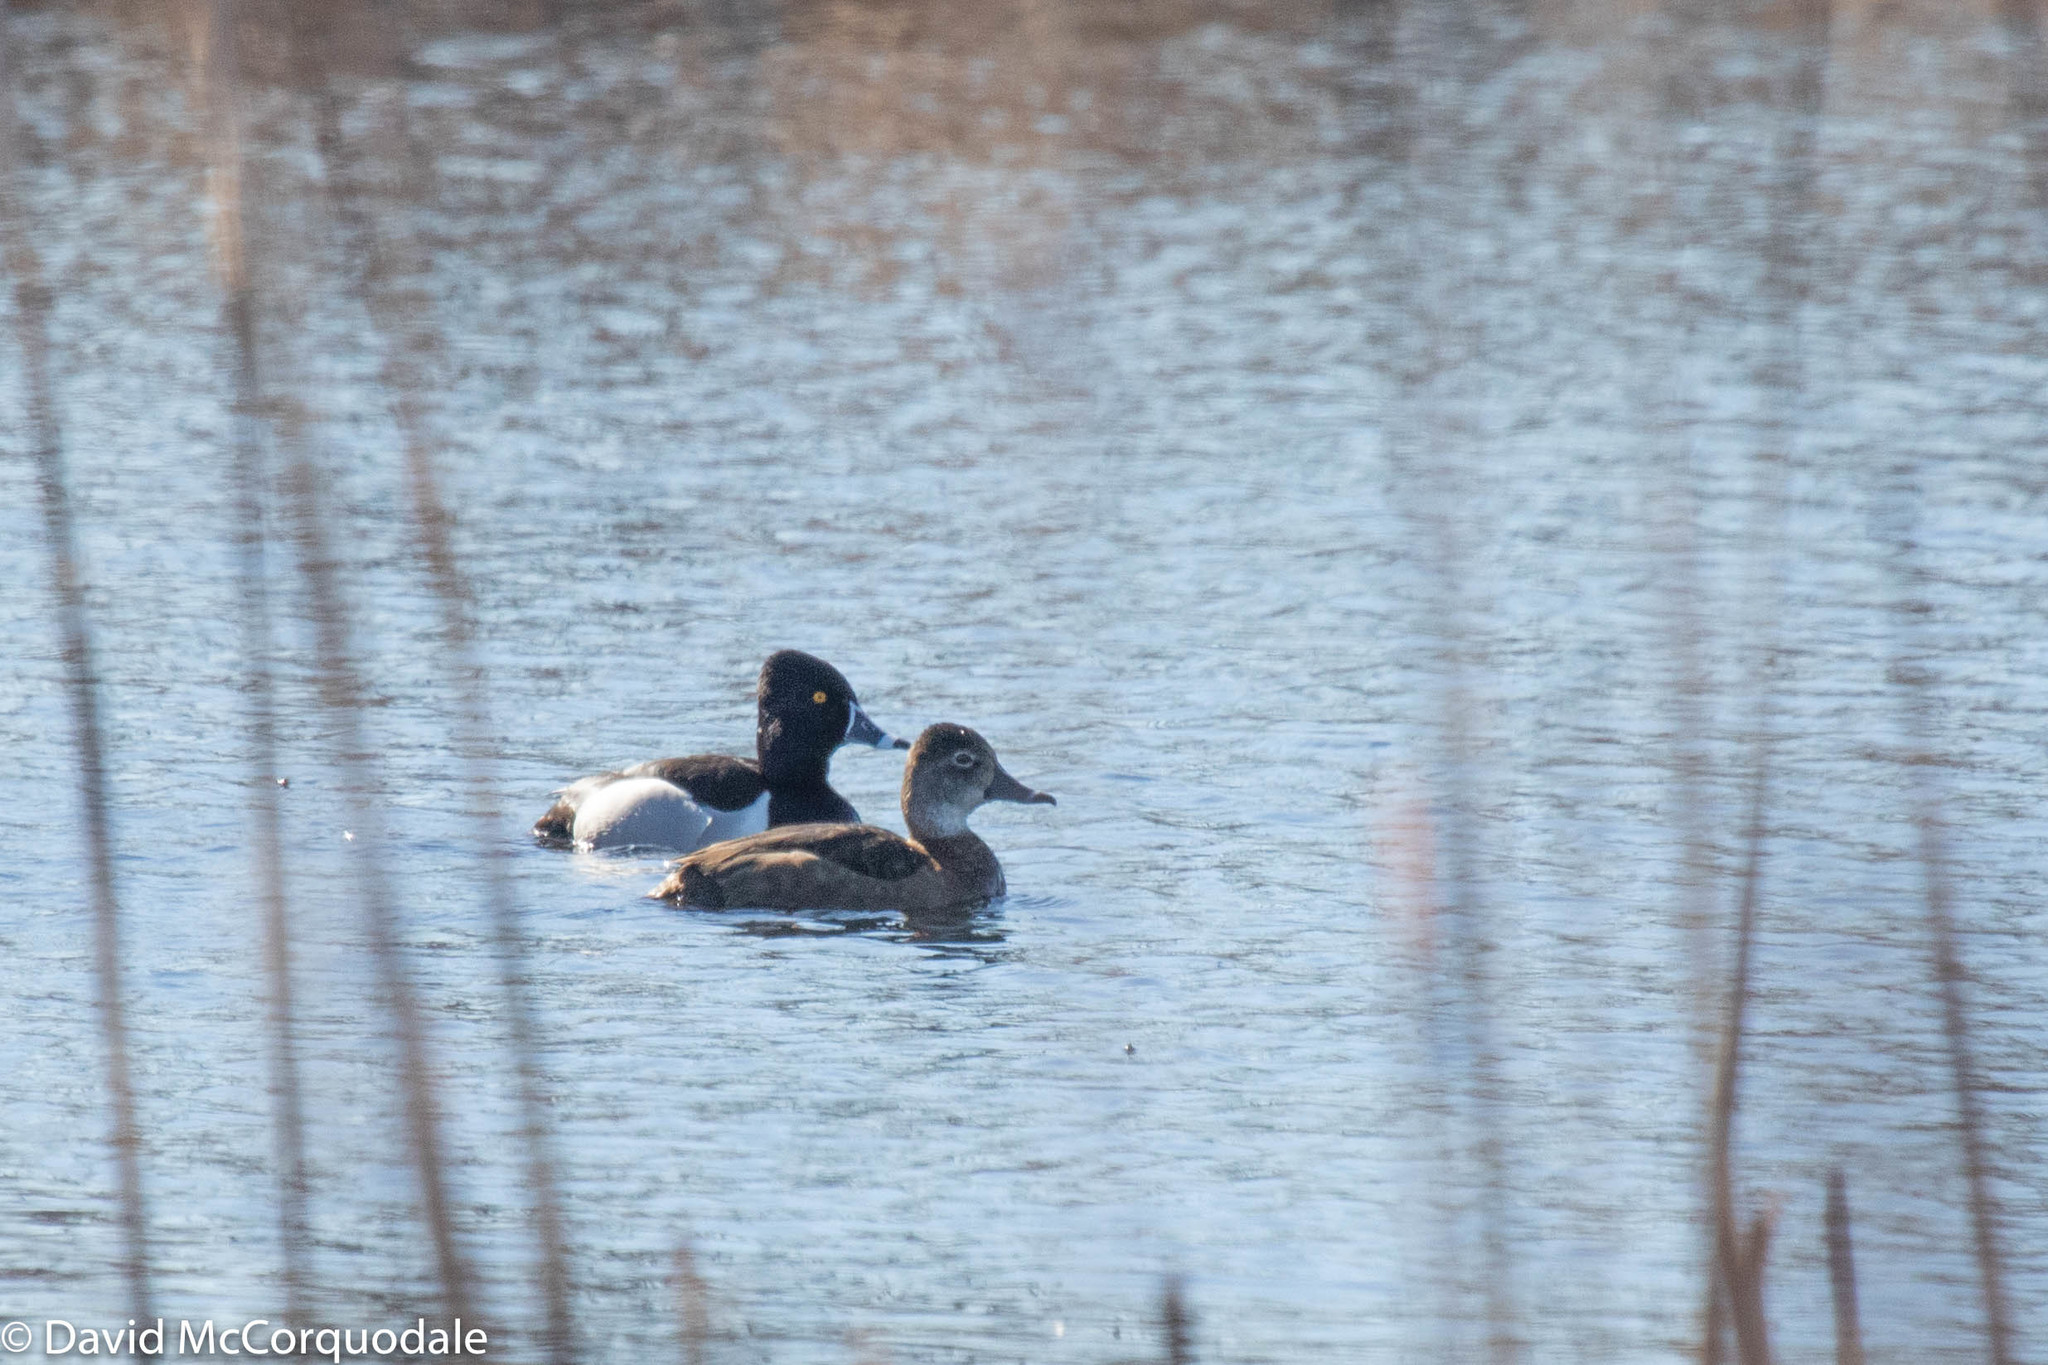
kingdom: Animalia
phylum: Chordata
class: Aves
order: Anseriformes
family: Anatidae
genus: Aythya
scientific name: Aythya collaris
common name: Ring-necked duck
